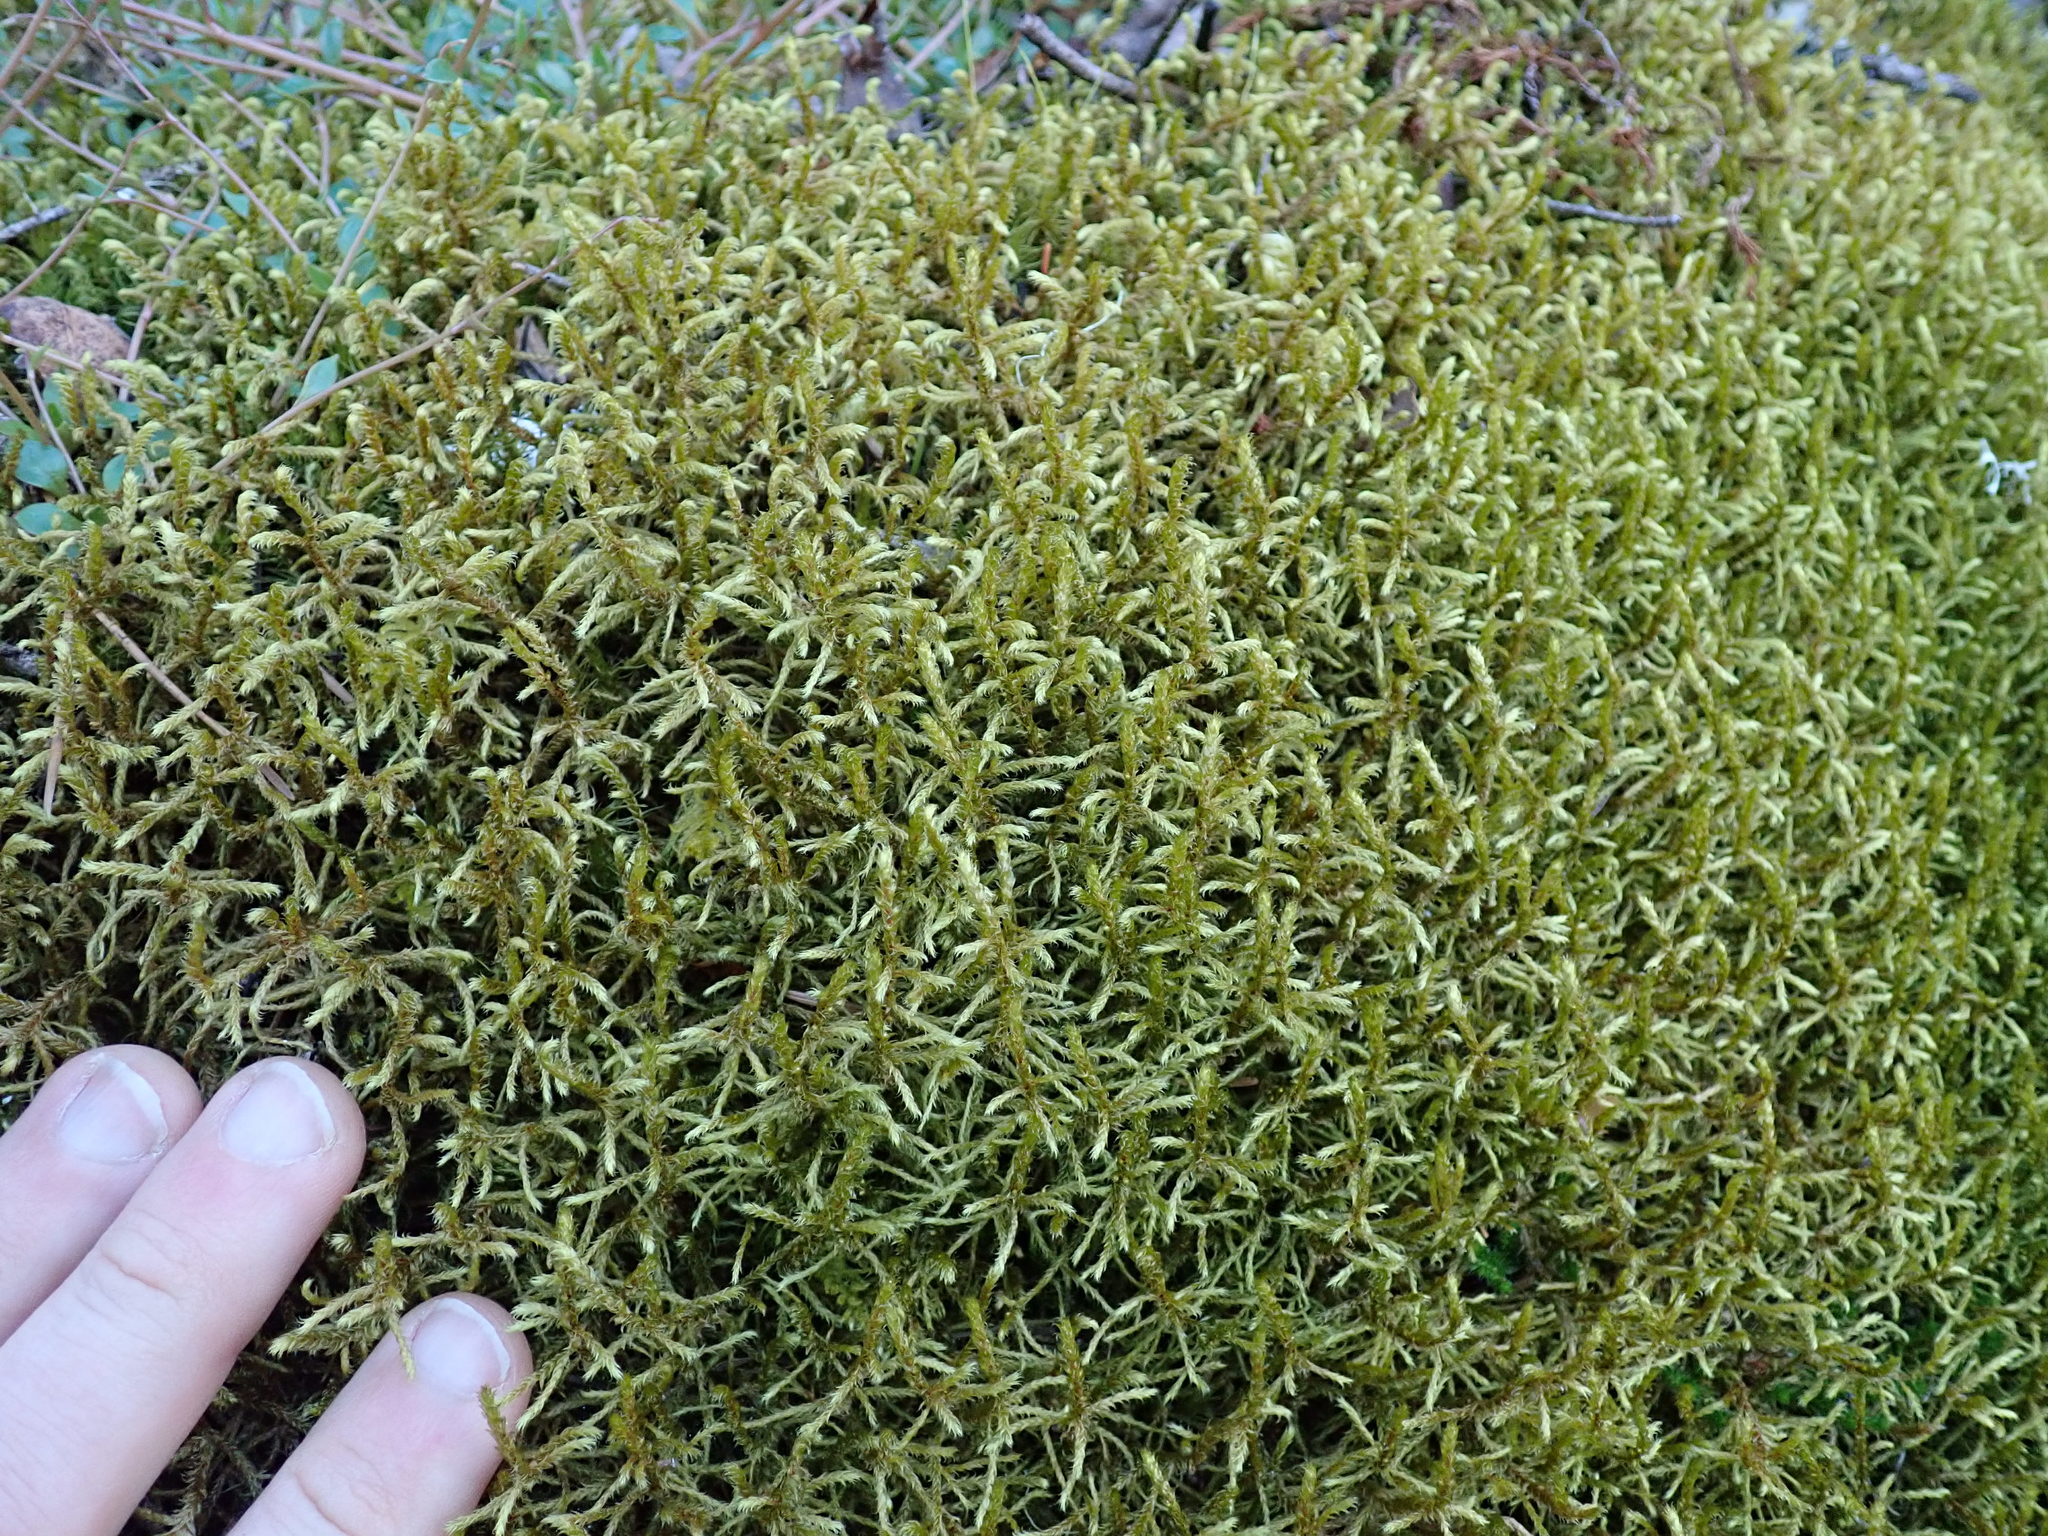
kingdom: Plantae
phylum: Bryophyta
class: Bryopsida
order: Hypnales
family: Hylocomiaceae
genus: Pleurozium
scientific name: Pleurozium schreberi
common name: Red-stemmed feather moss
